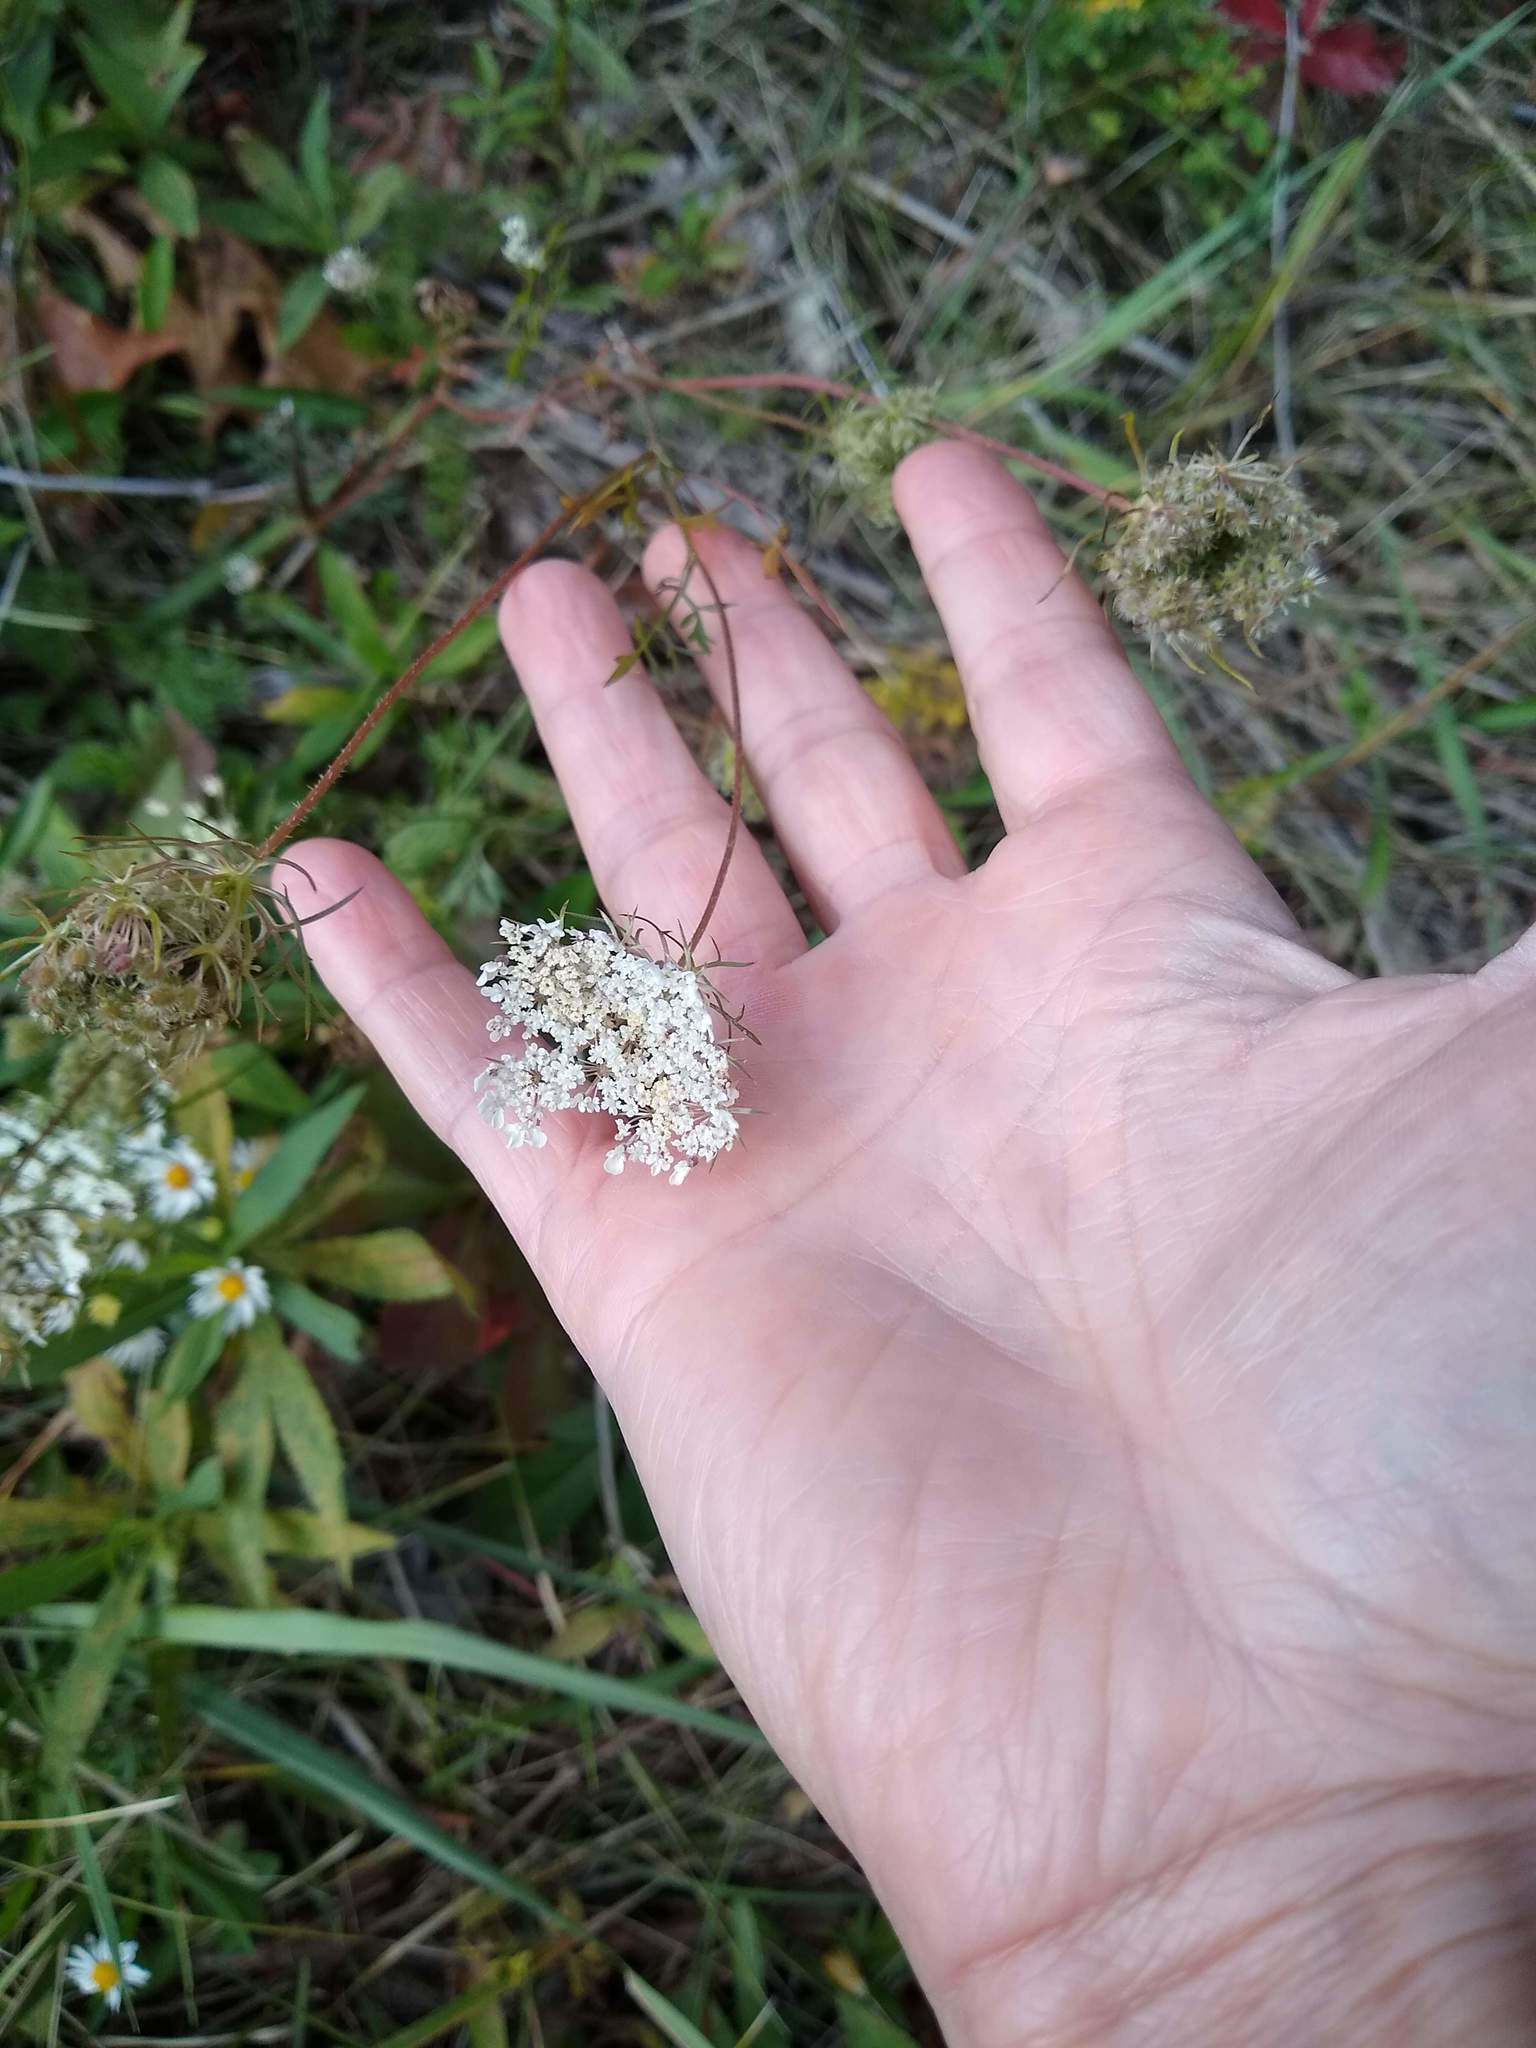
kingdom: Plantae
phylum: Tracheophyta
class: Magnoliopsida
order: Apiales
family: Apiaceae
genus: Daucus
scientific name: Daucus carota
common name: Wild carrot
